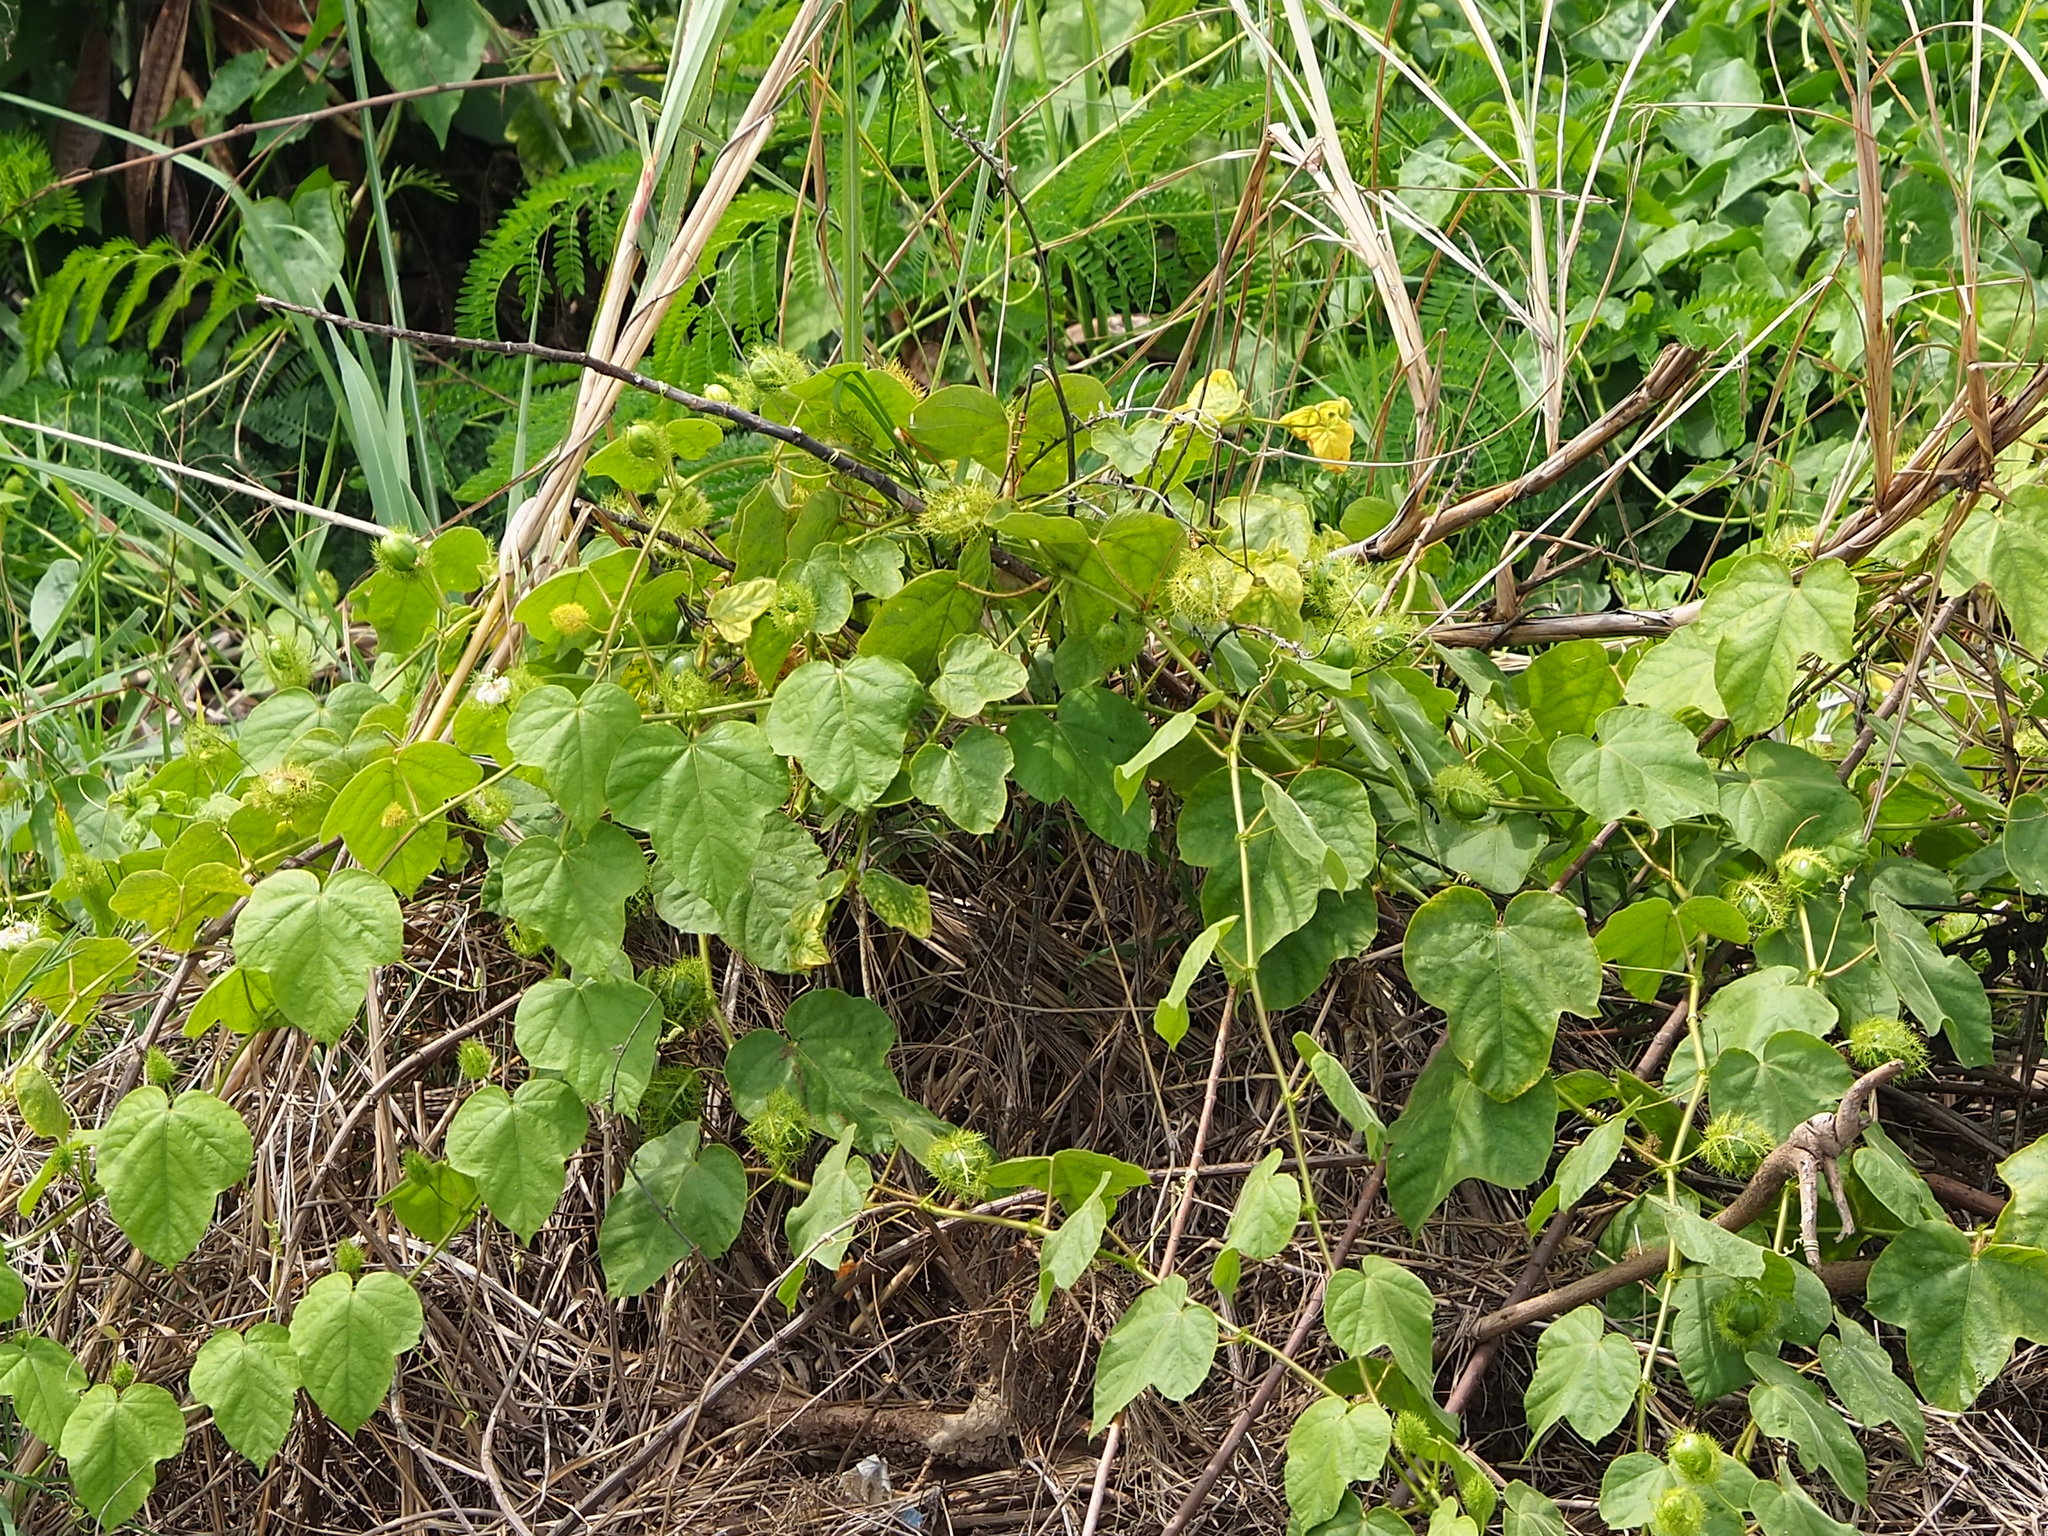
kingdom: Plantae
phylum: Tracheophyta
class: Magnoliopsida
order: Malpighiales
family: Passifloraceae
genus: Passiflora
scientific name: Passiflora vesicaria
